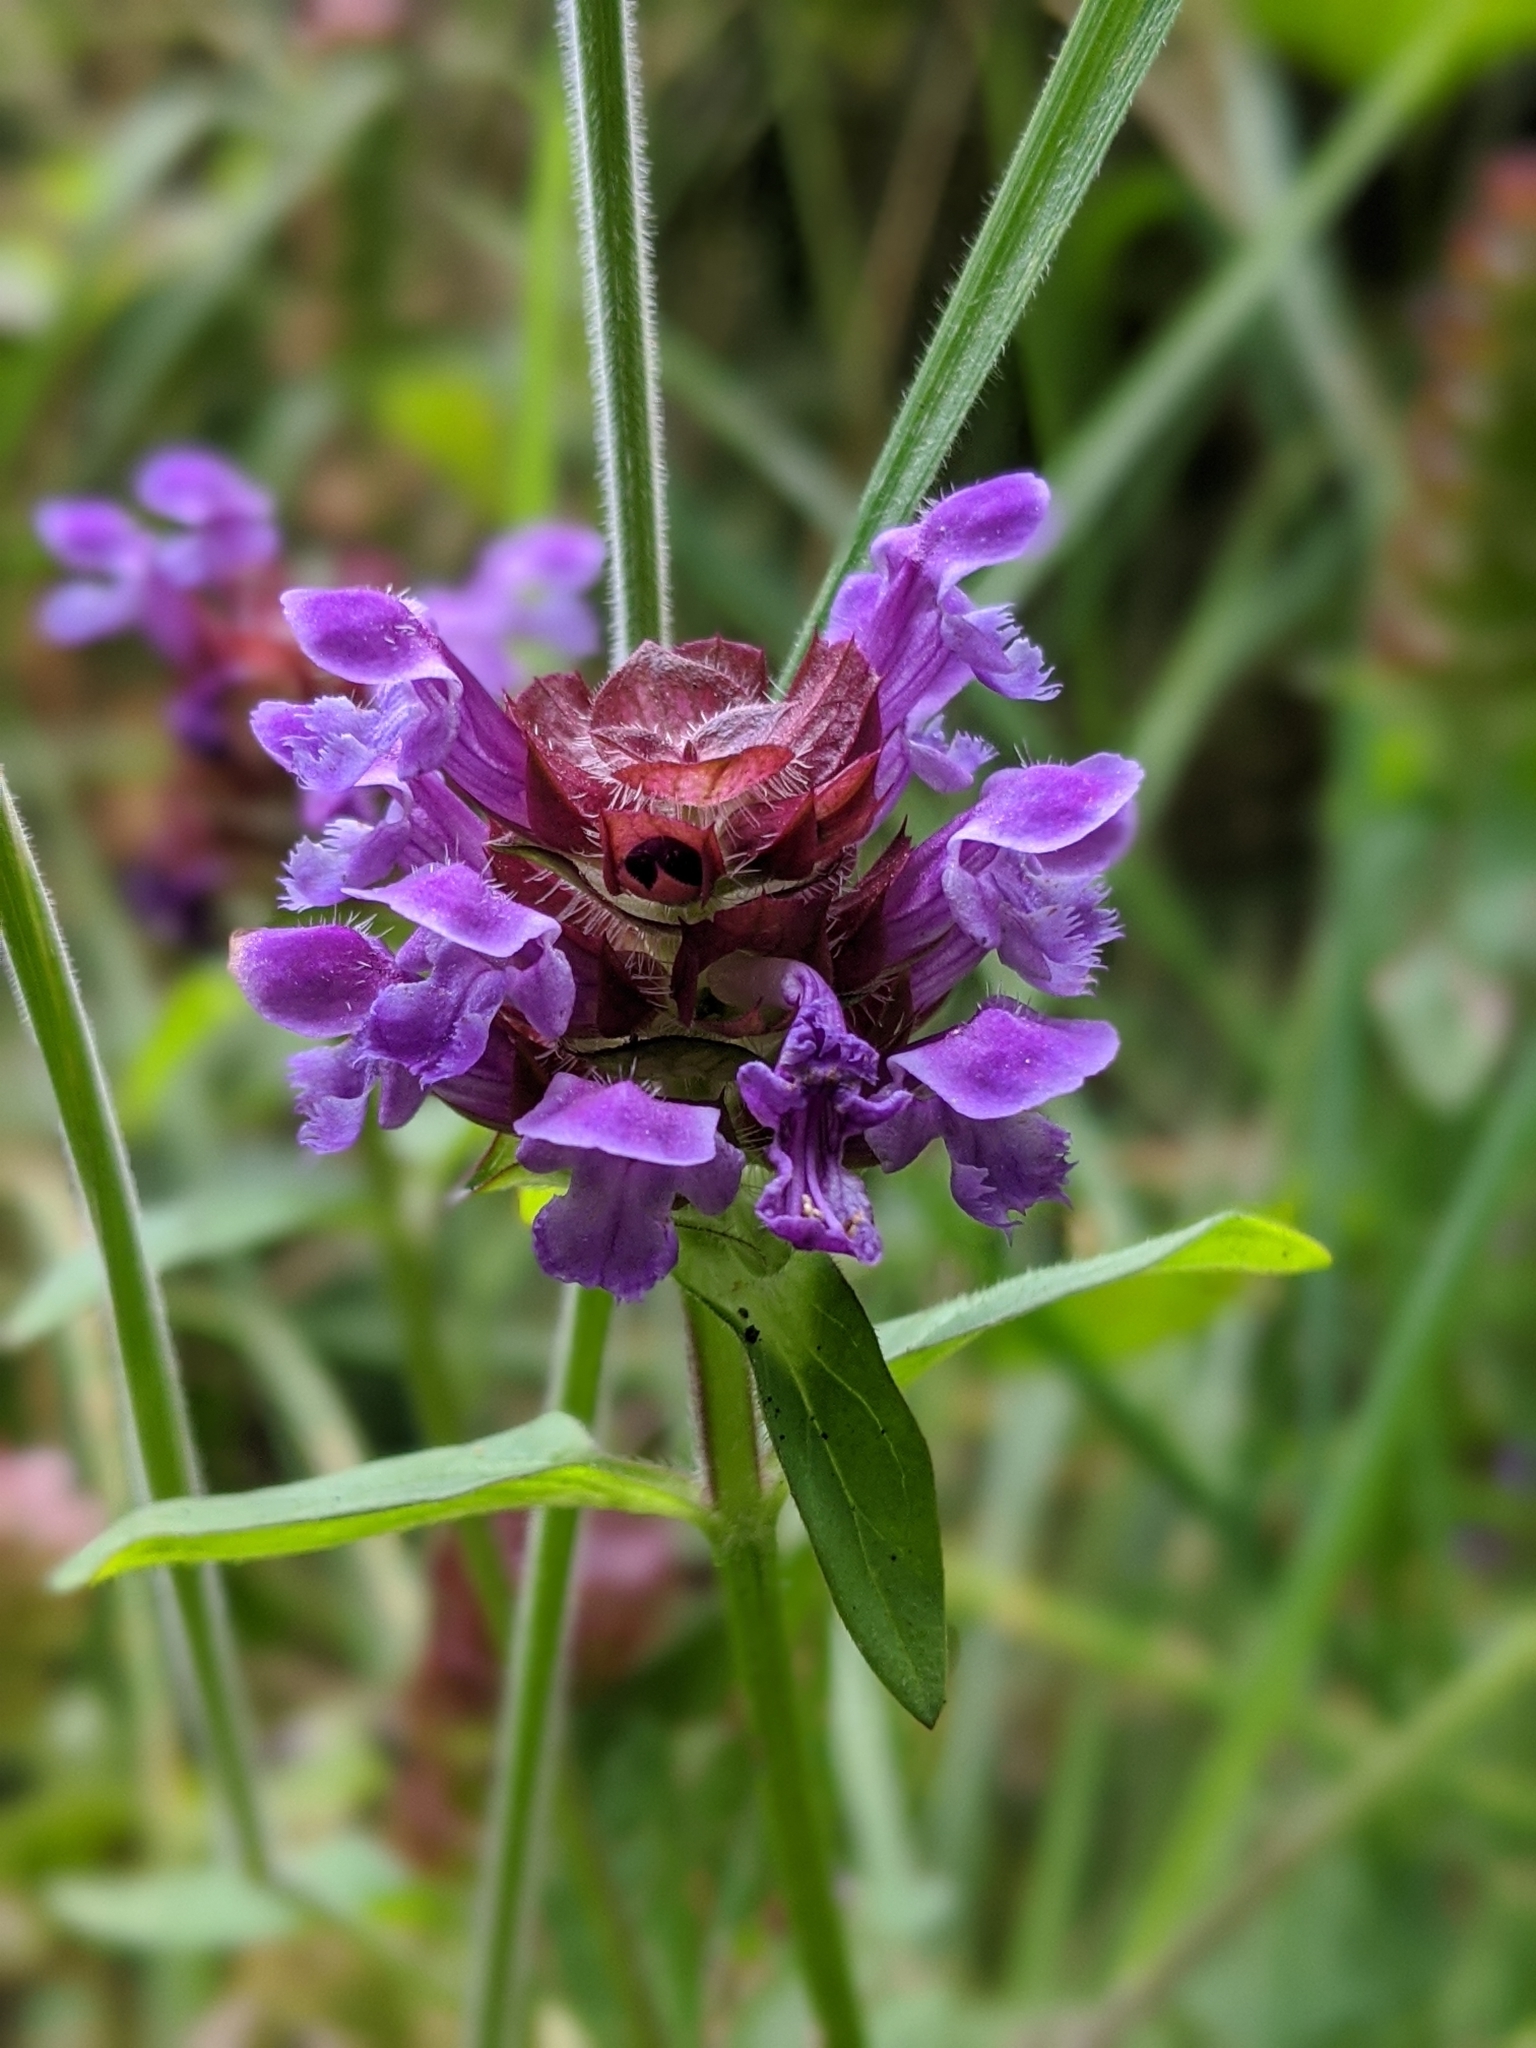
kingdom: Plantae
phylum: Tracheophyta
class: Magnoliopsida
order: Lamiales
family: Lamiaceae
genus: Prunella
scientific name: Prunella vulgaris
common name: Heal-all
